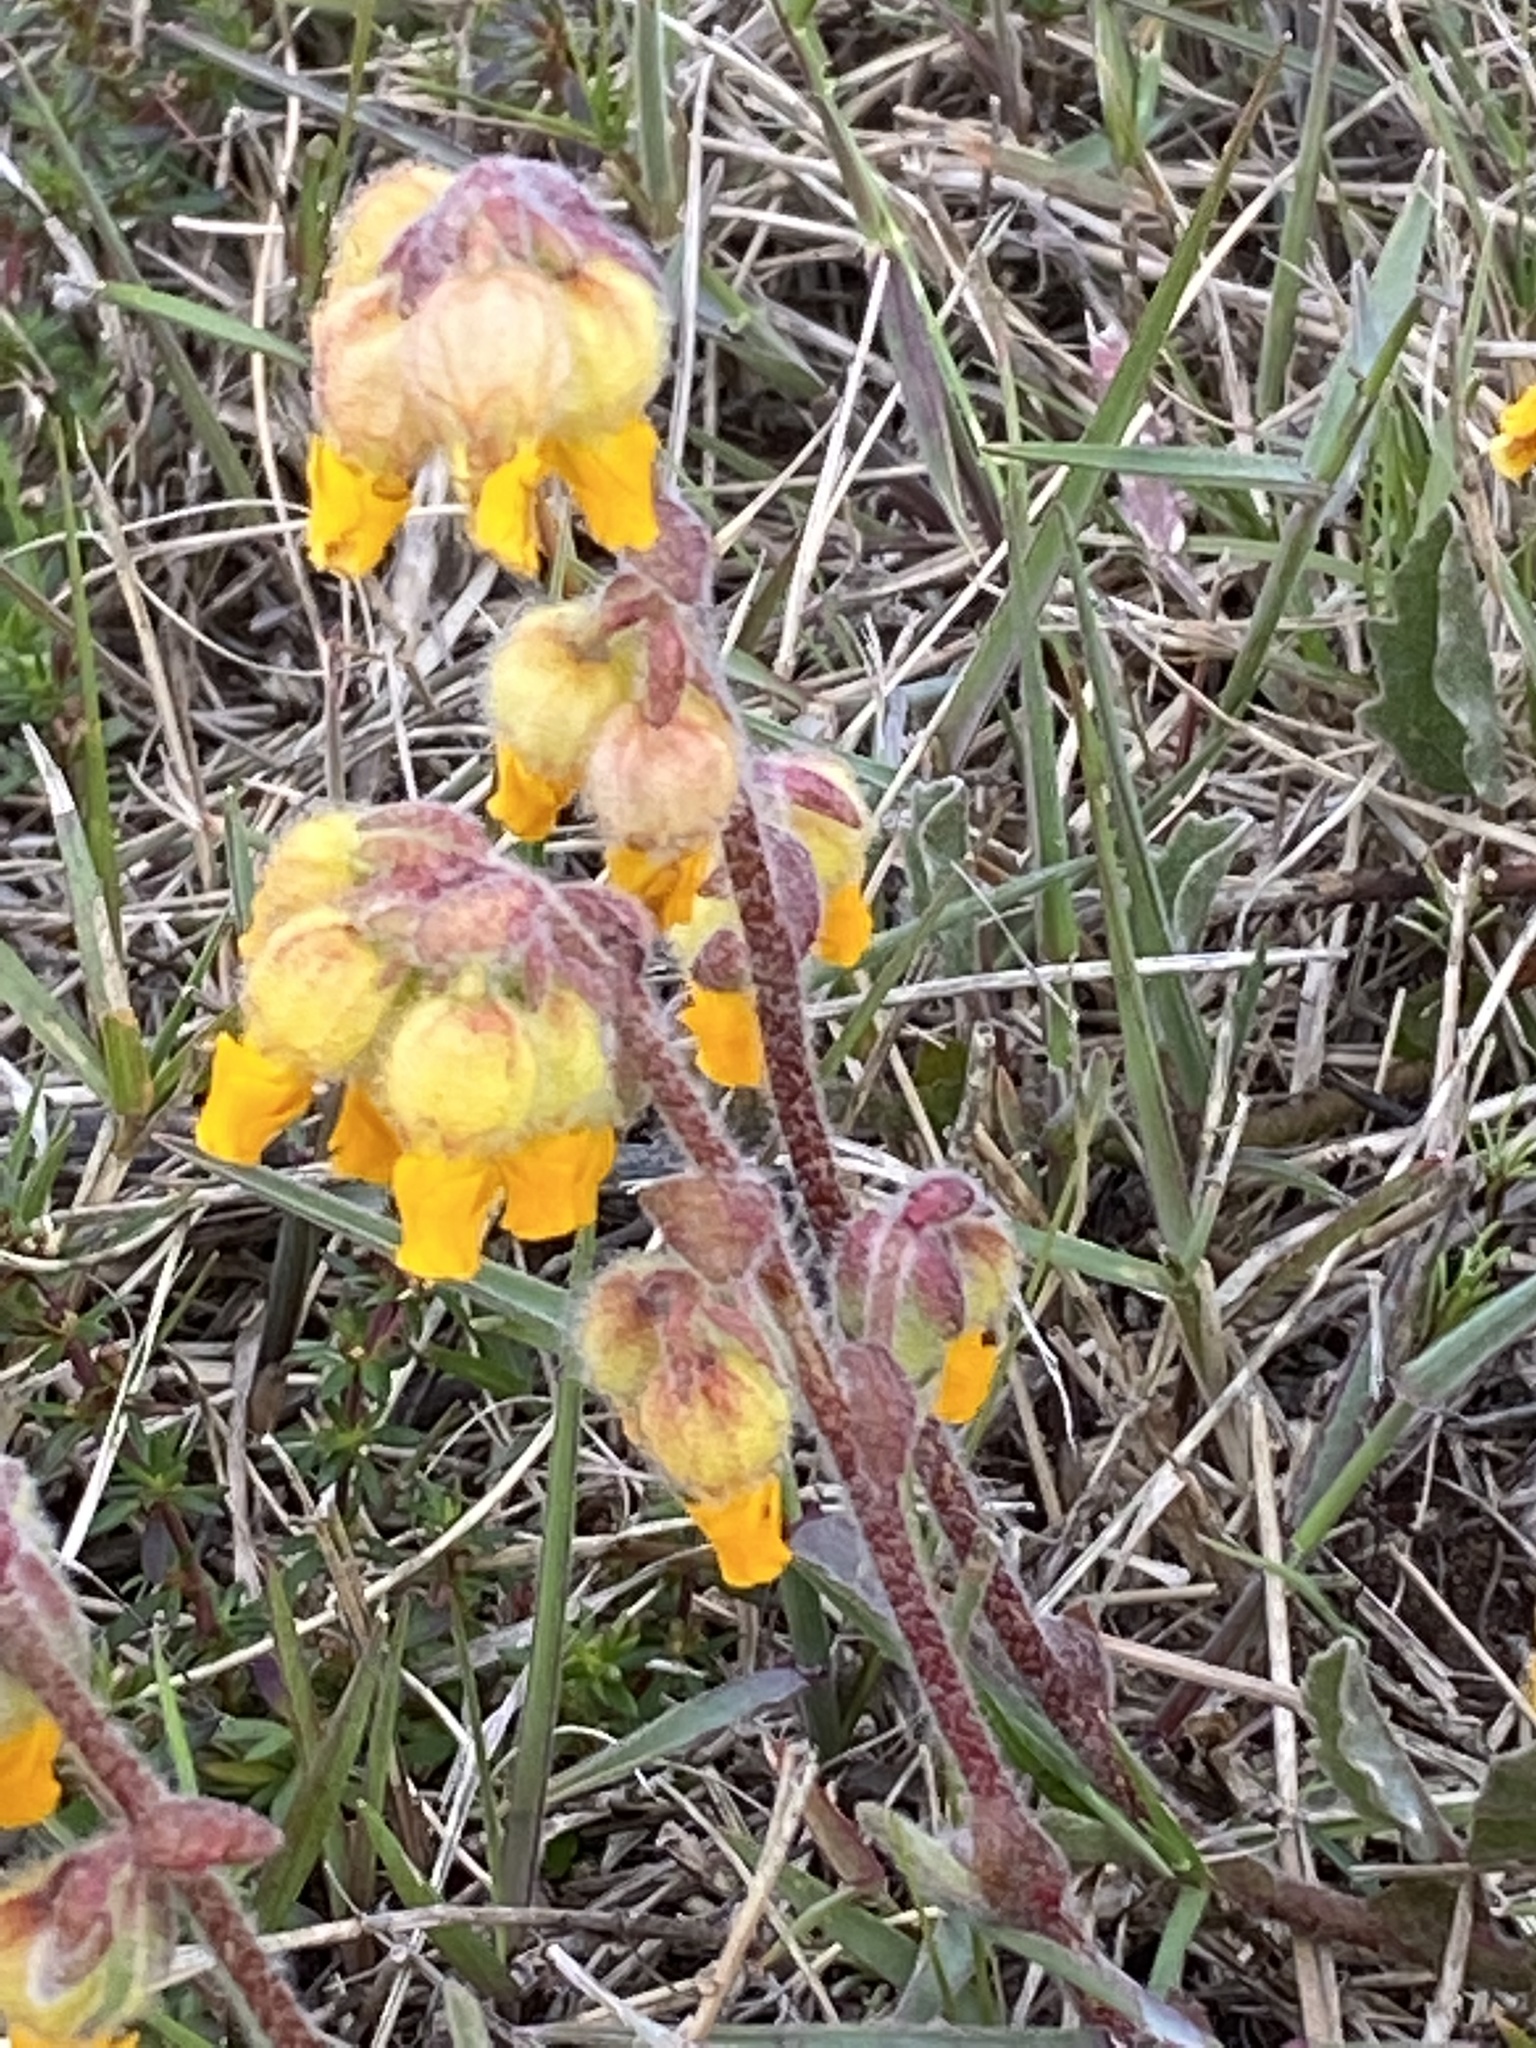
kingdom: Plantae
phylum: Tracheophyta
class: Magnoliopsida
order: Malvales
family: Malvaceae
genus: Hermannia
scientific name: Hermannia decumbens
